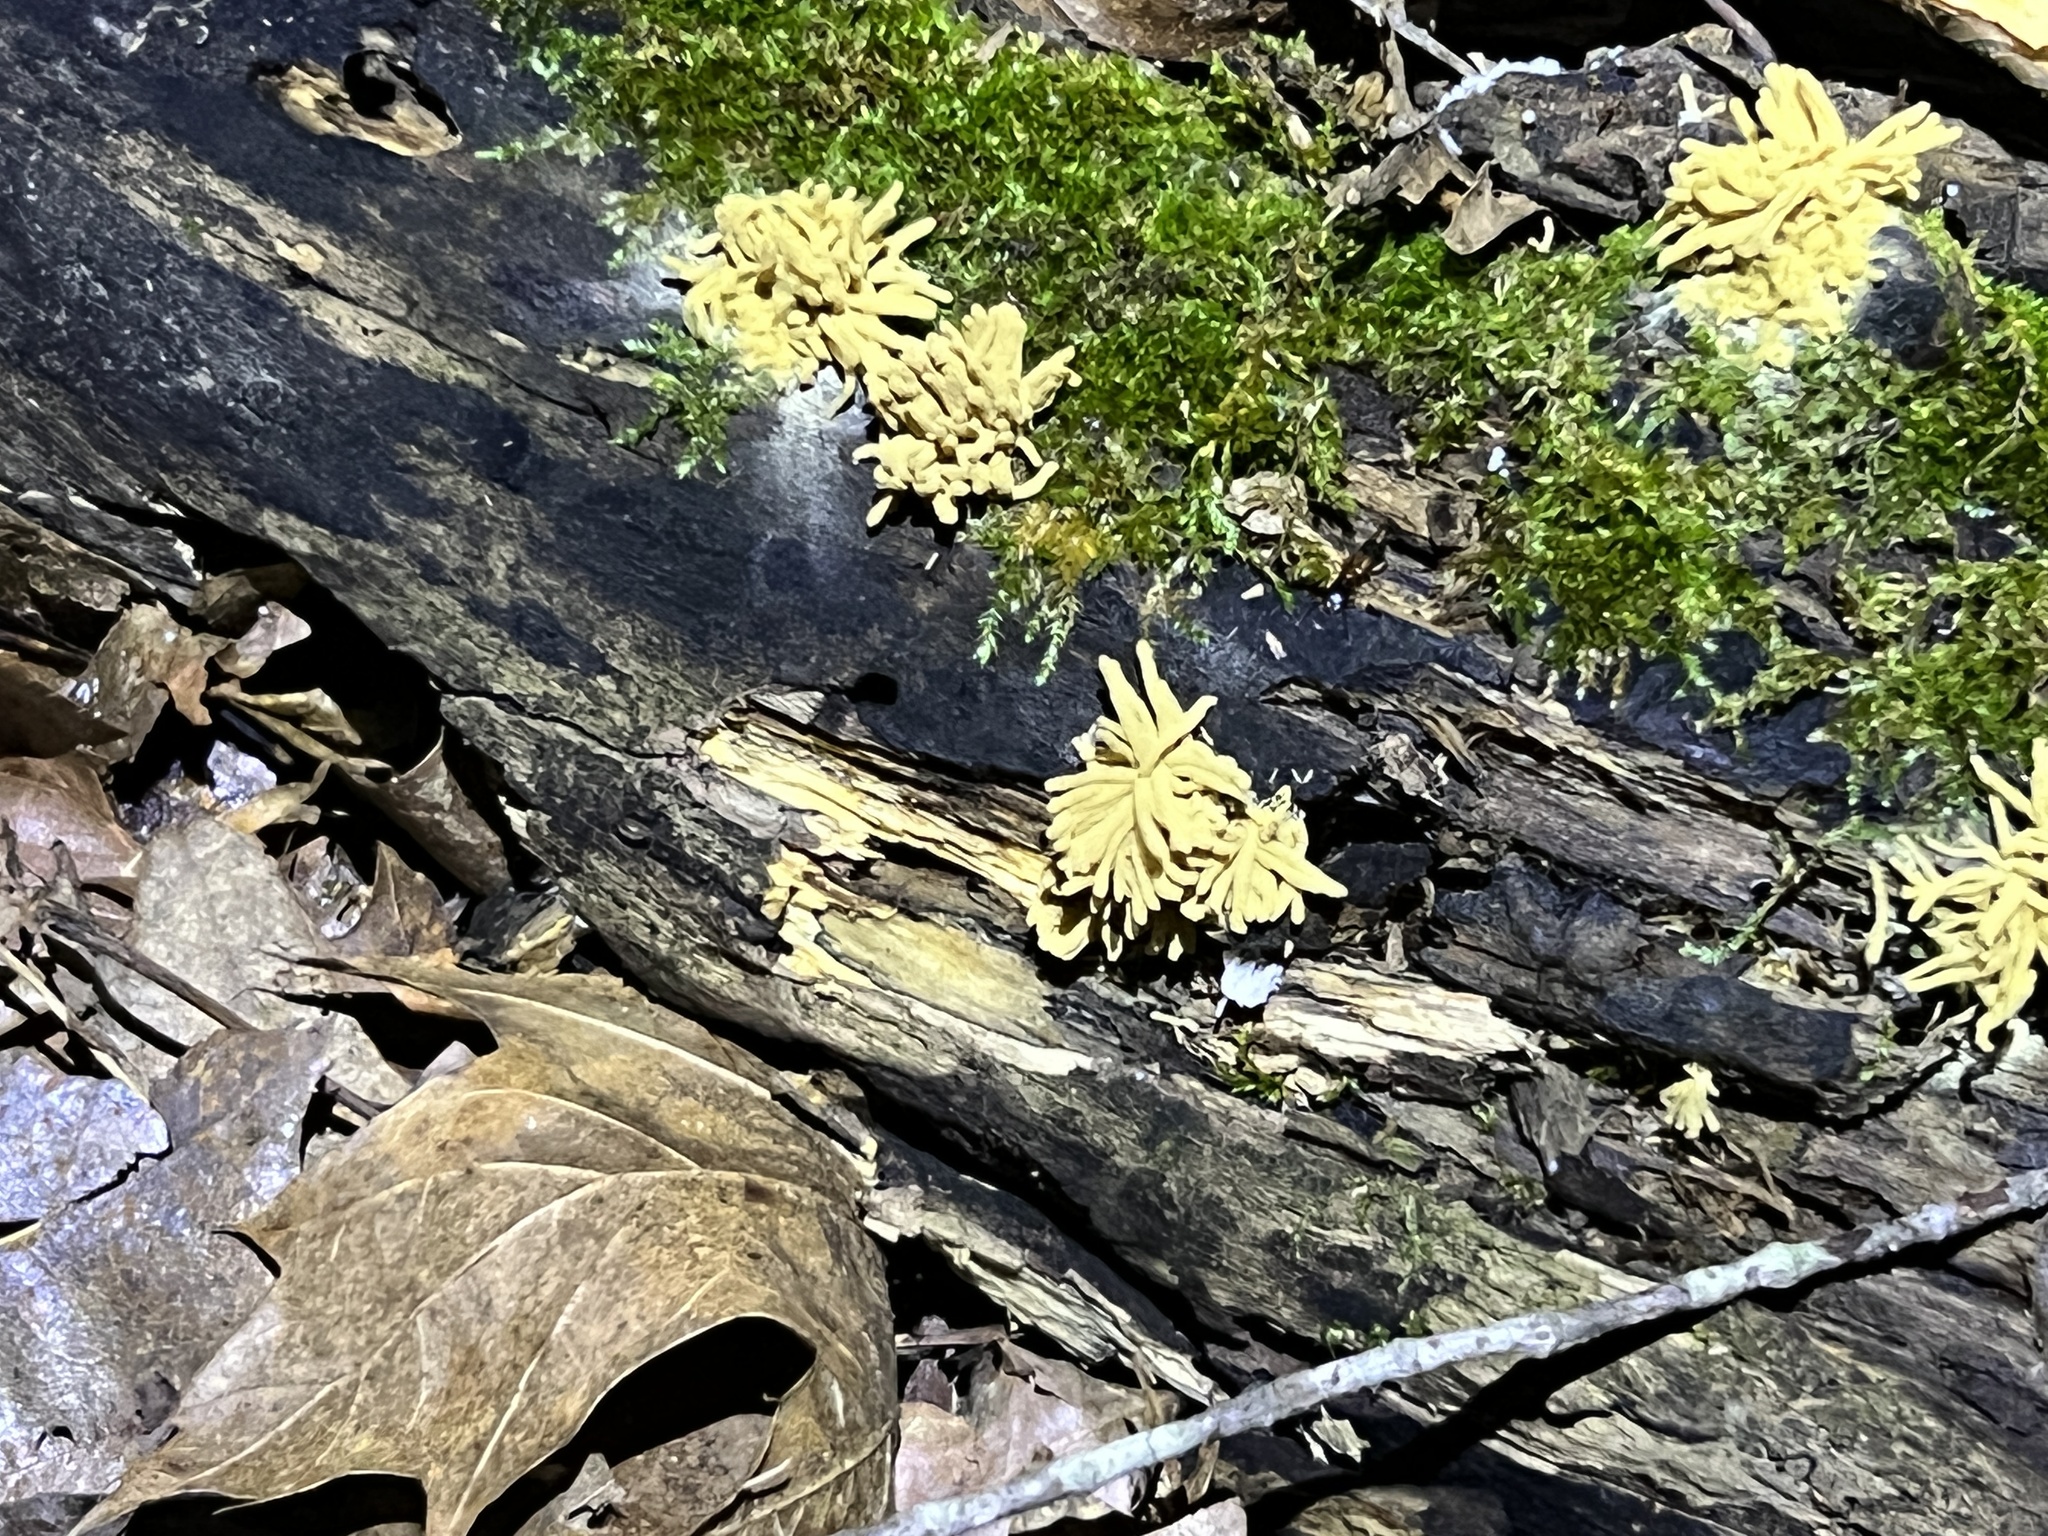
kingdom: Protozoa
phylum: Mycetozoa
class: Myxomycetes
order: Trichiales
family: Arcyriaceae
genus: Arcyria
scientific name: Arcyria obvelata
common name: Yellow carnival candy slime
